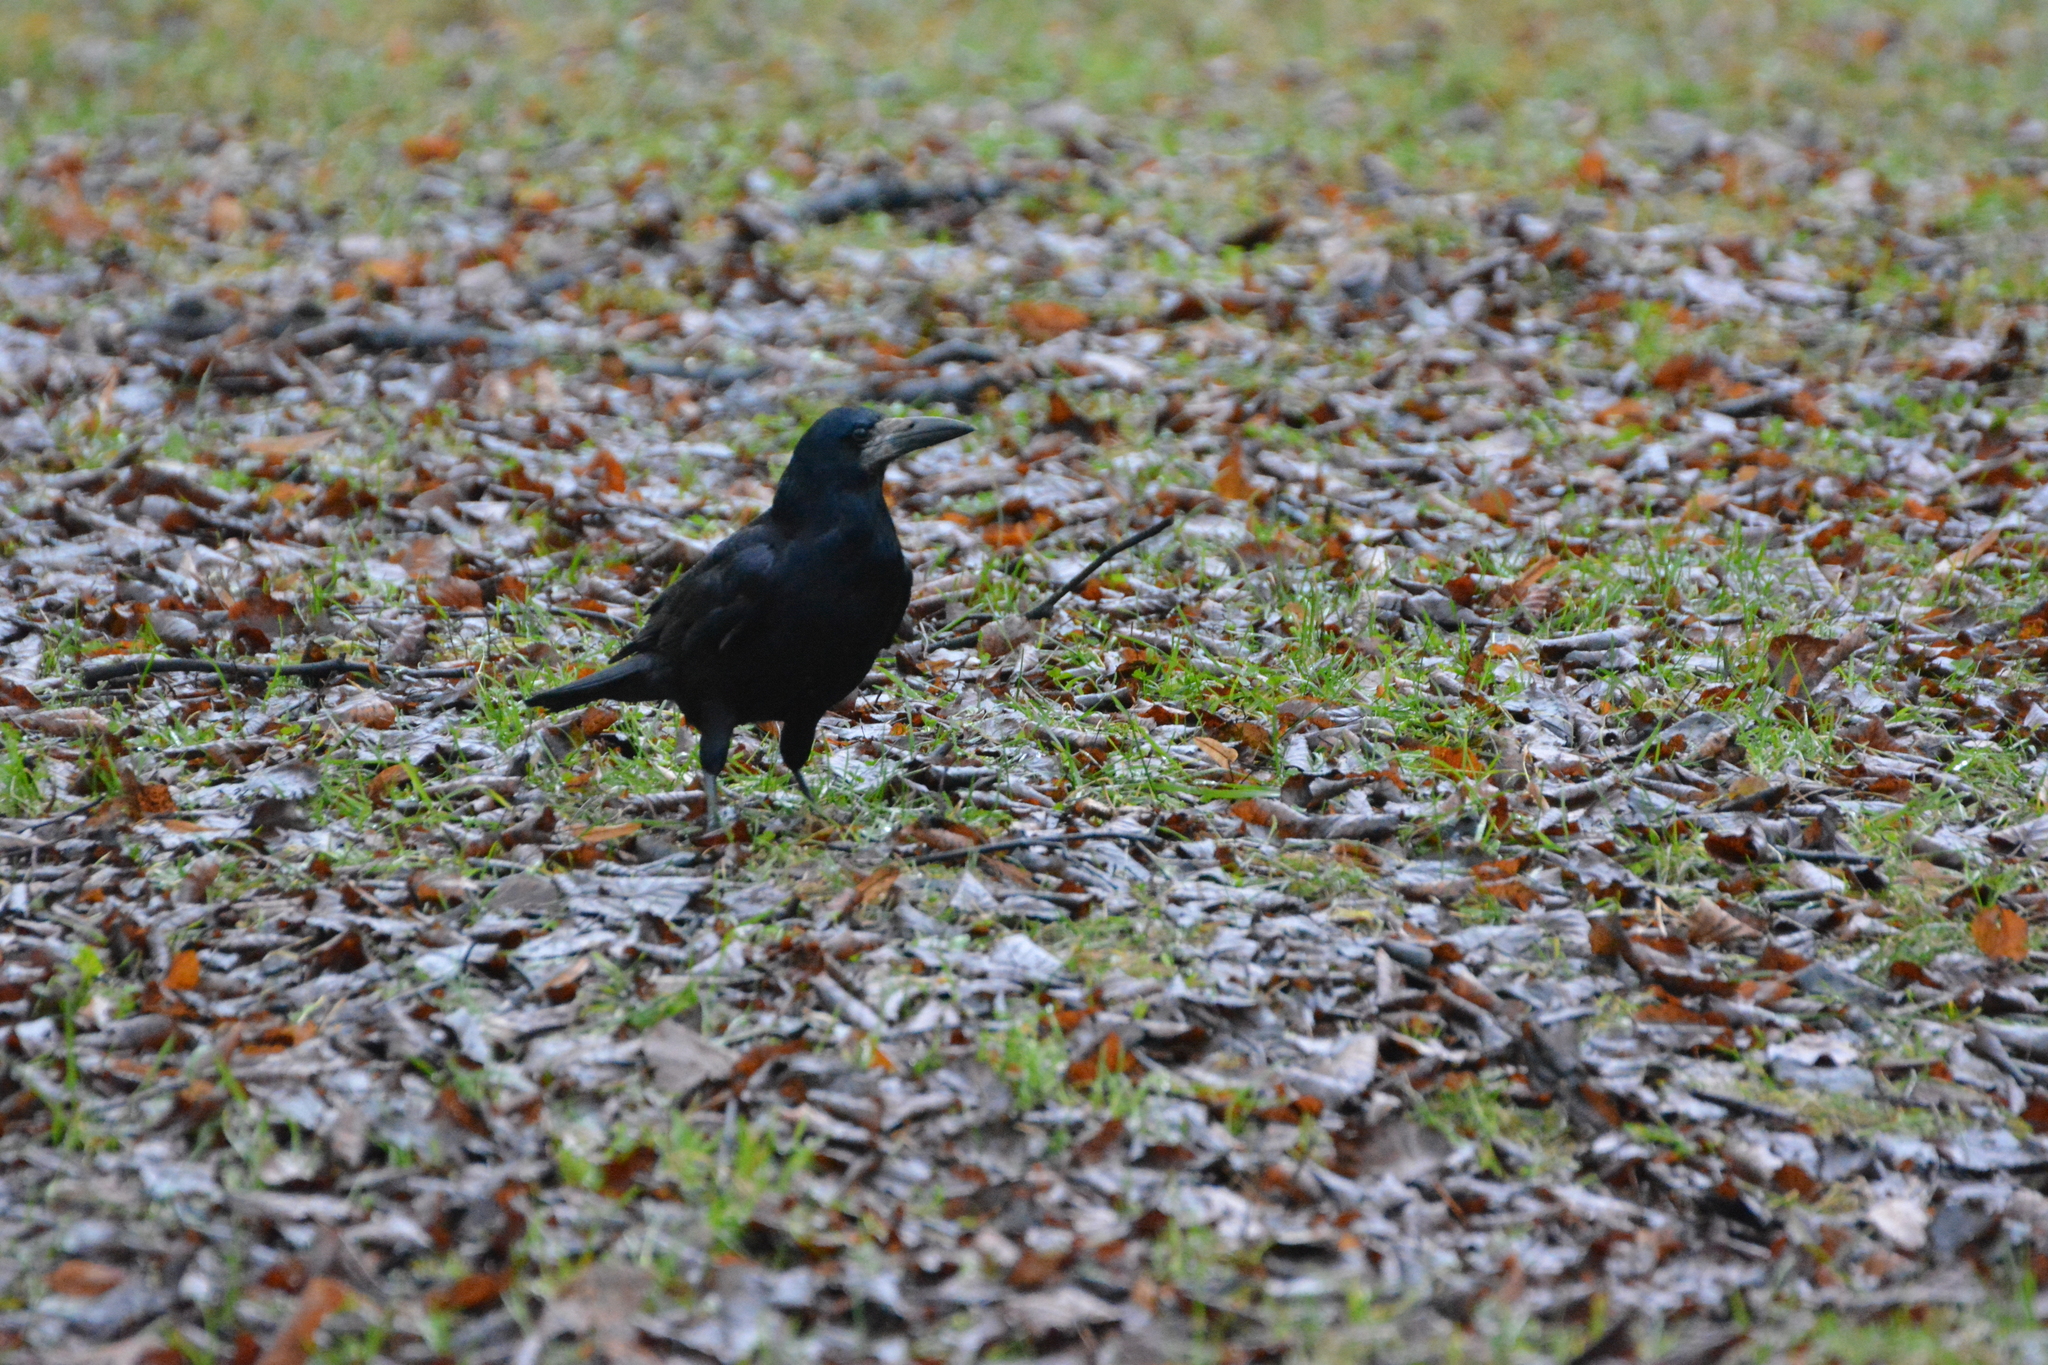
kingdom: Animalia
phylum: Chordata
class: Aves
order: Passeriformes
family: Corvidae
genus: Corvus
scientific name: Corvus frugilegus
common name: Rook
